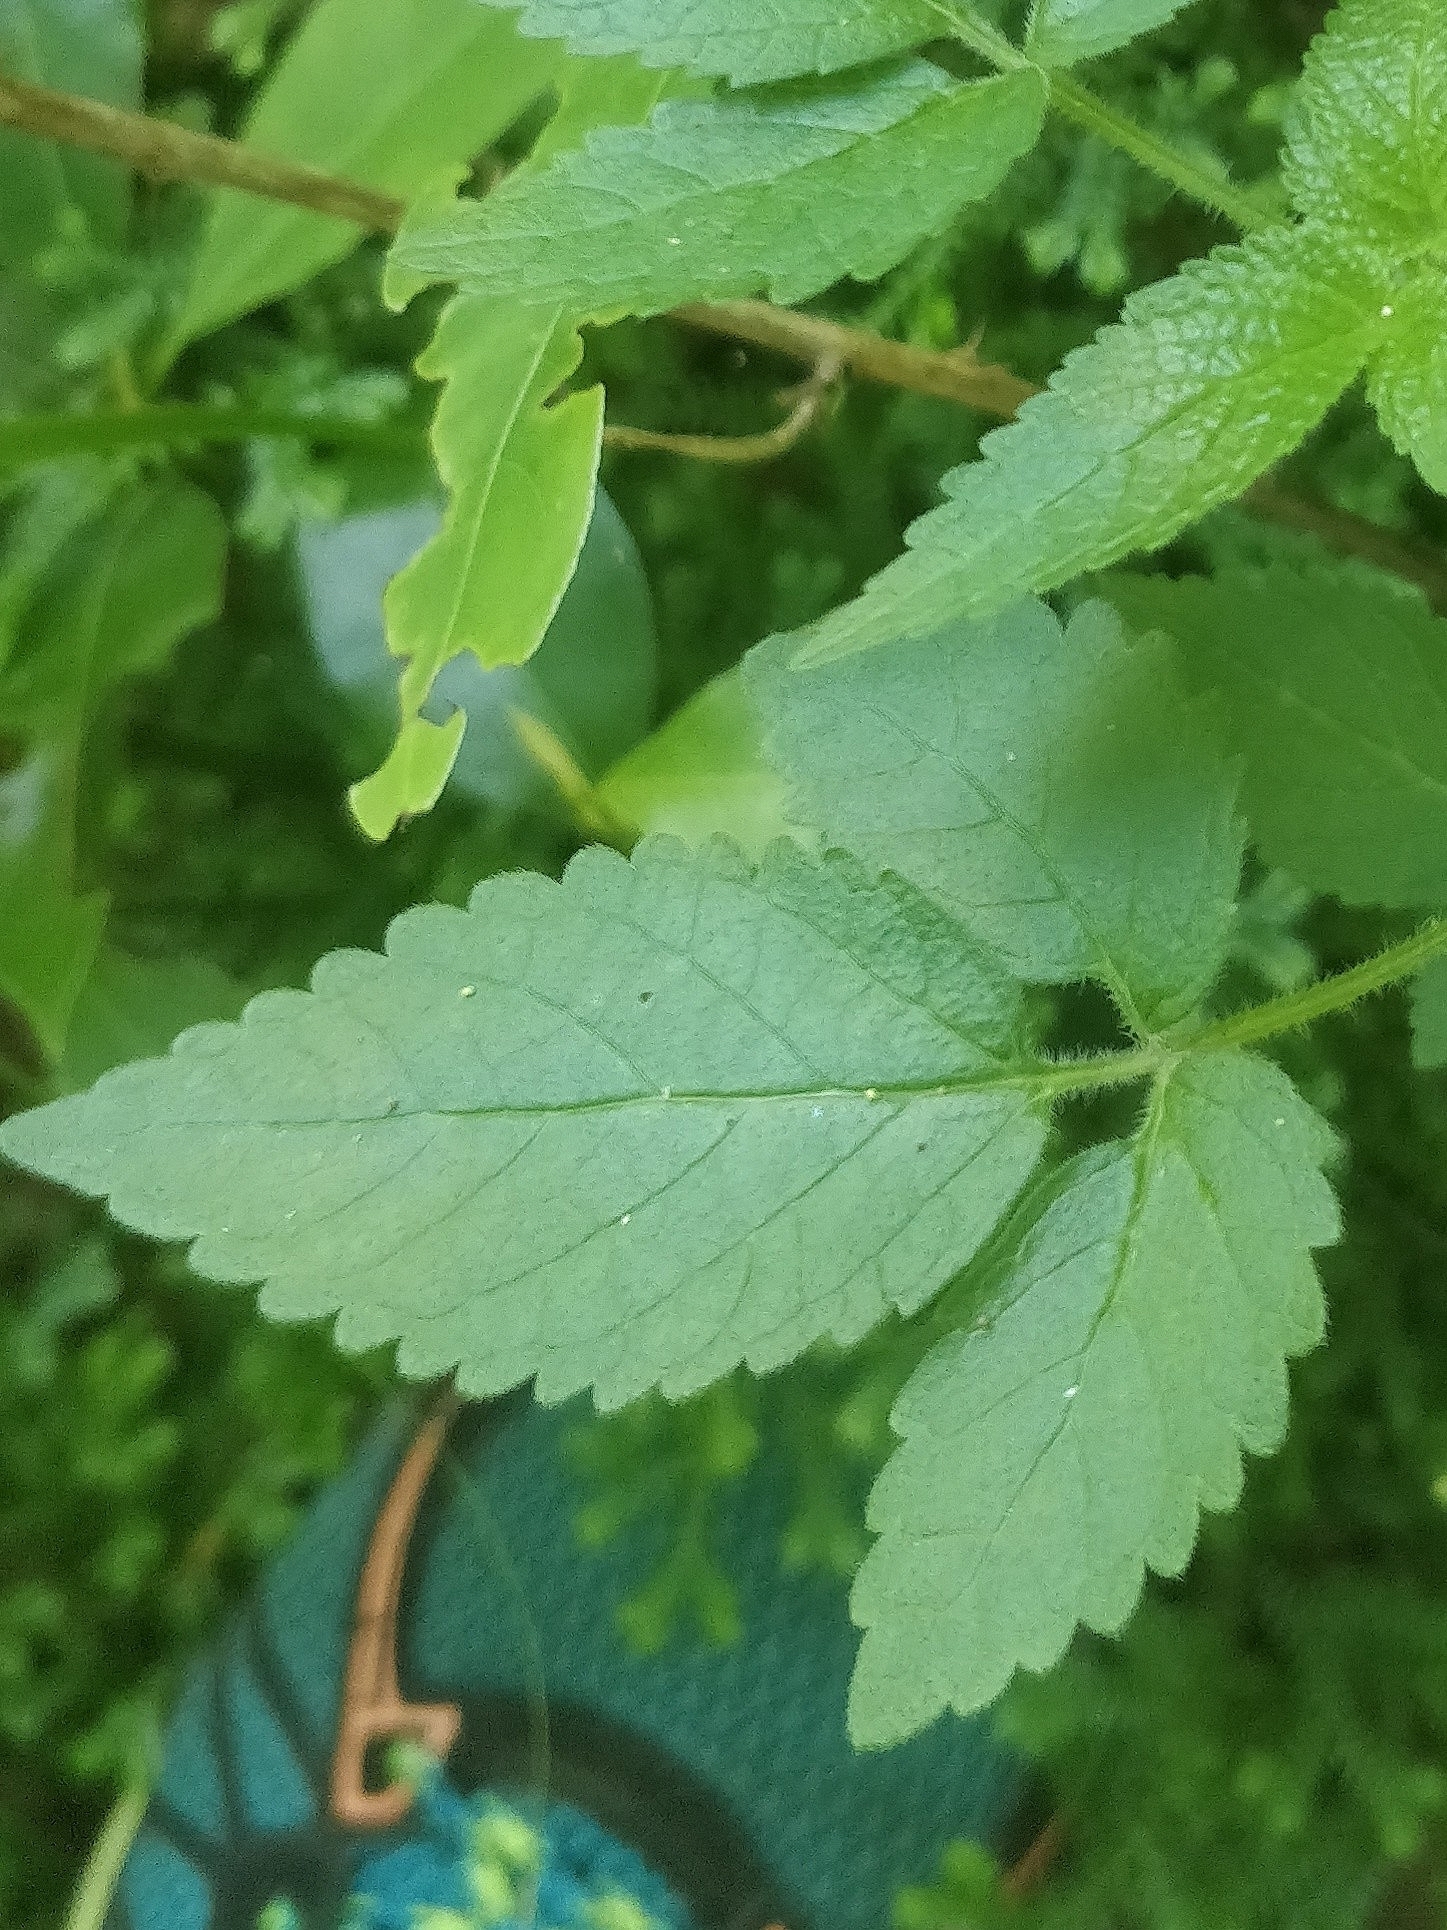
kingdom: Plantae
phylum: Tracheophyta
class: Magnoliopsida
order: Lamiales
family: Lamiaceae
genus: Cedronella
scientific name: Cedronella canariensis
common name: Canary islands balm
